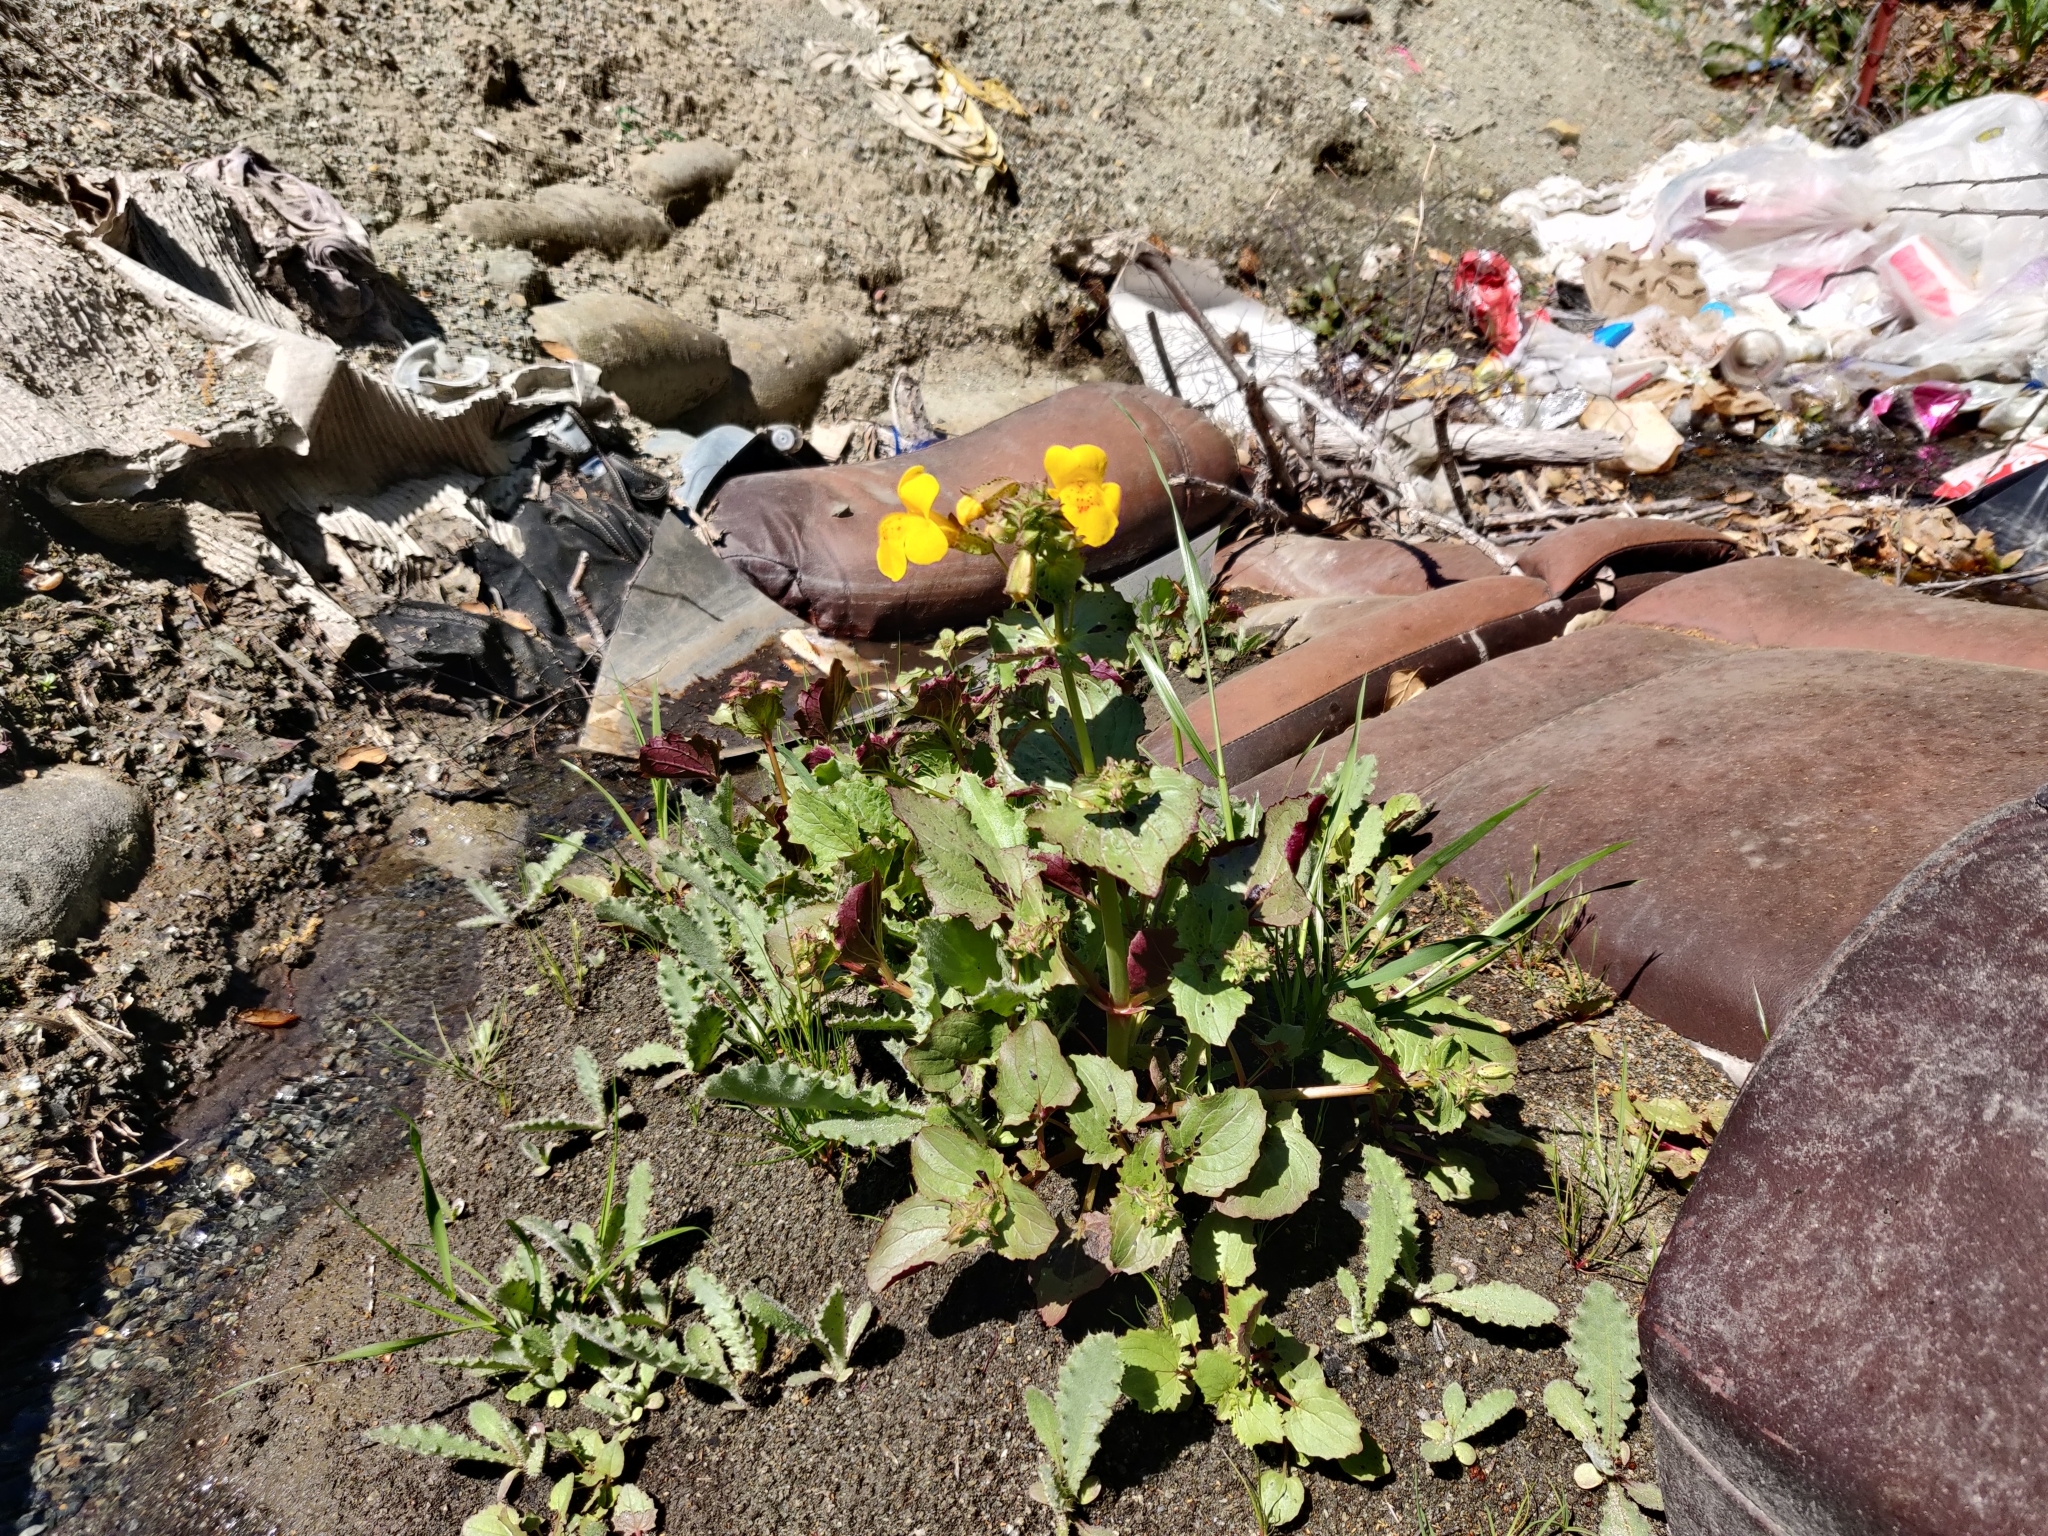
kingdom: Plantae
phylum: Tracheophyta
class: Magnoliopsida
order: Lamiales
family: Phrymaceae
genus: Erythranthe
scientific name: Erythranthe guttata
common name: Monkeyflower
